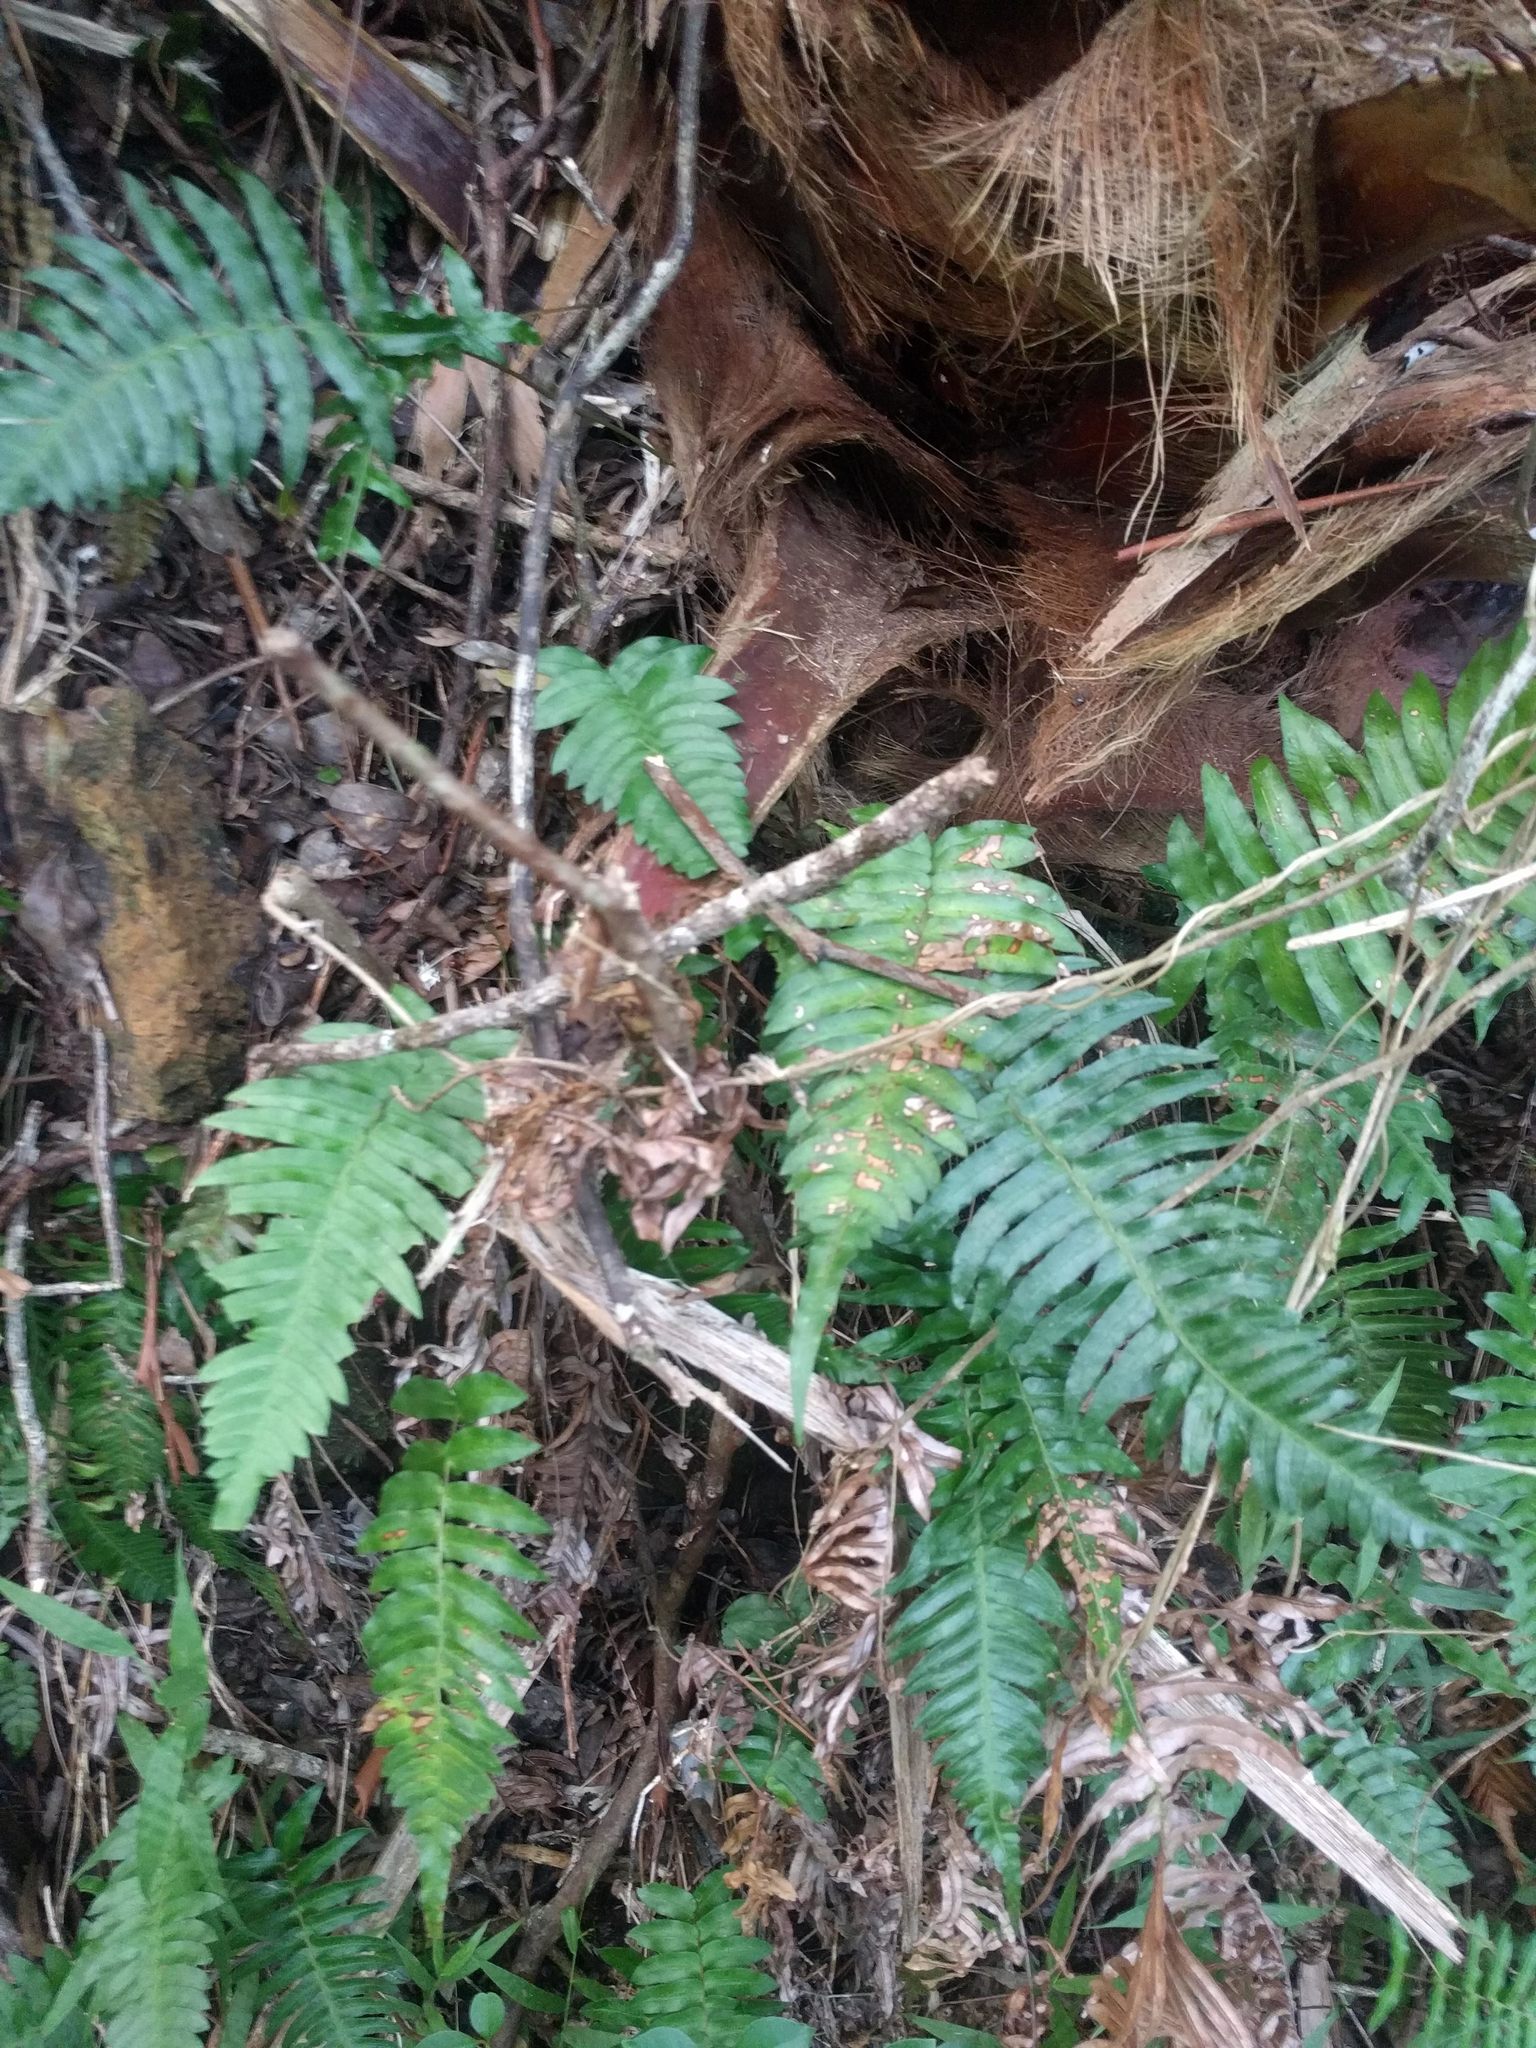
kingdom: Plantae
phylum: Tracheophyta
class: Polypodiopsida
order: Polypodiales
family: Blechnaceae
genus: Blechnum
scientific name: Blechnum appendiculatum
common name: Palm fern
